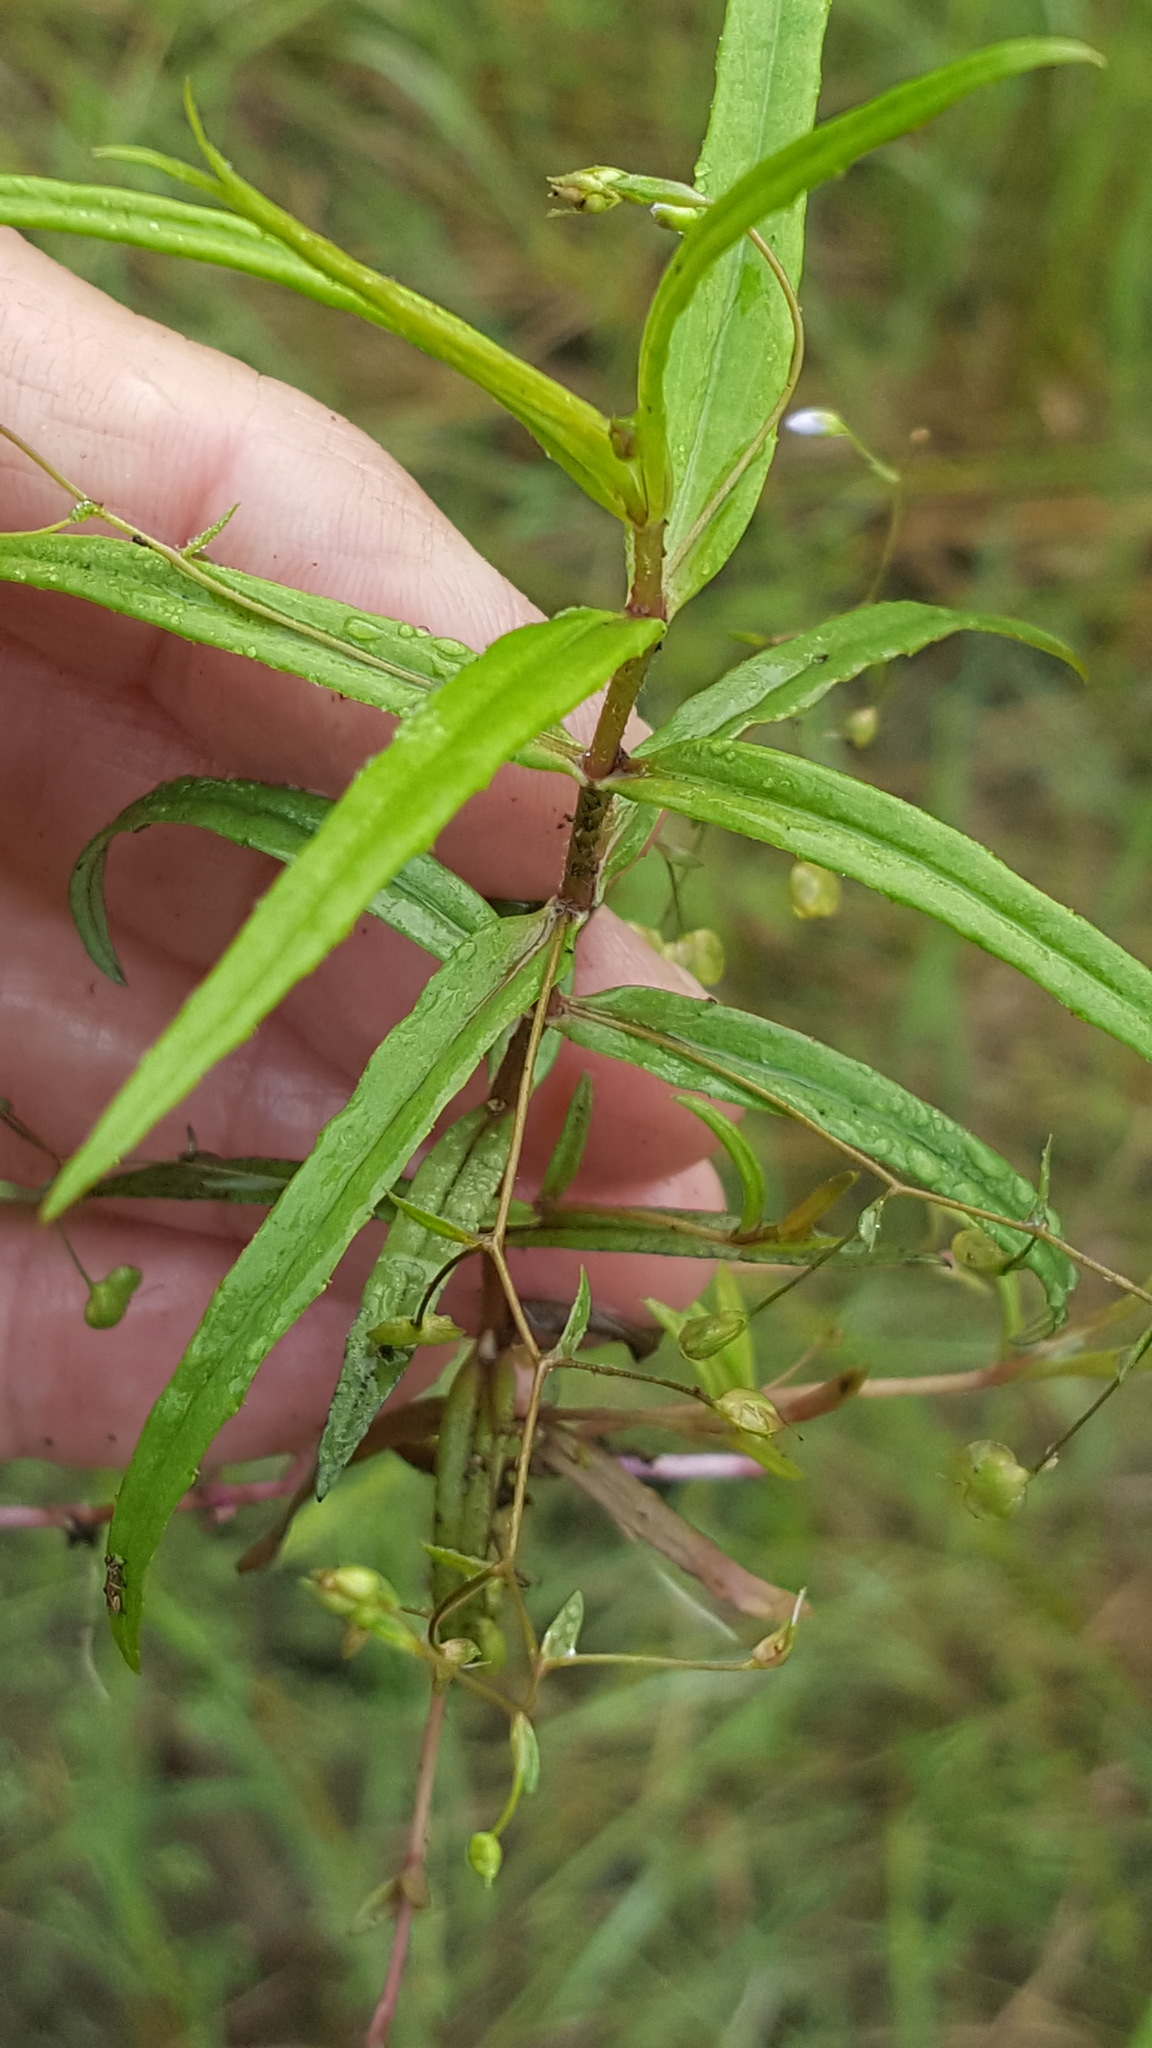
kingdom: Plantae
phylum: Tracheophyta
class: Magnoliopsida
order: Lamiales
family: Plantaginaceae
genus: Veronica
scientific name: Veronica scutellata
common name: Marsh speedwell
